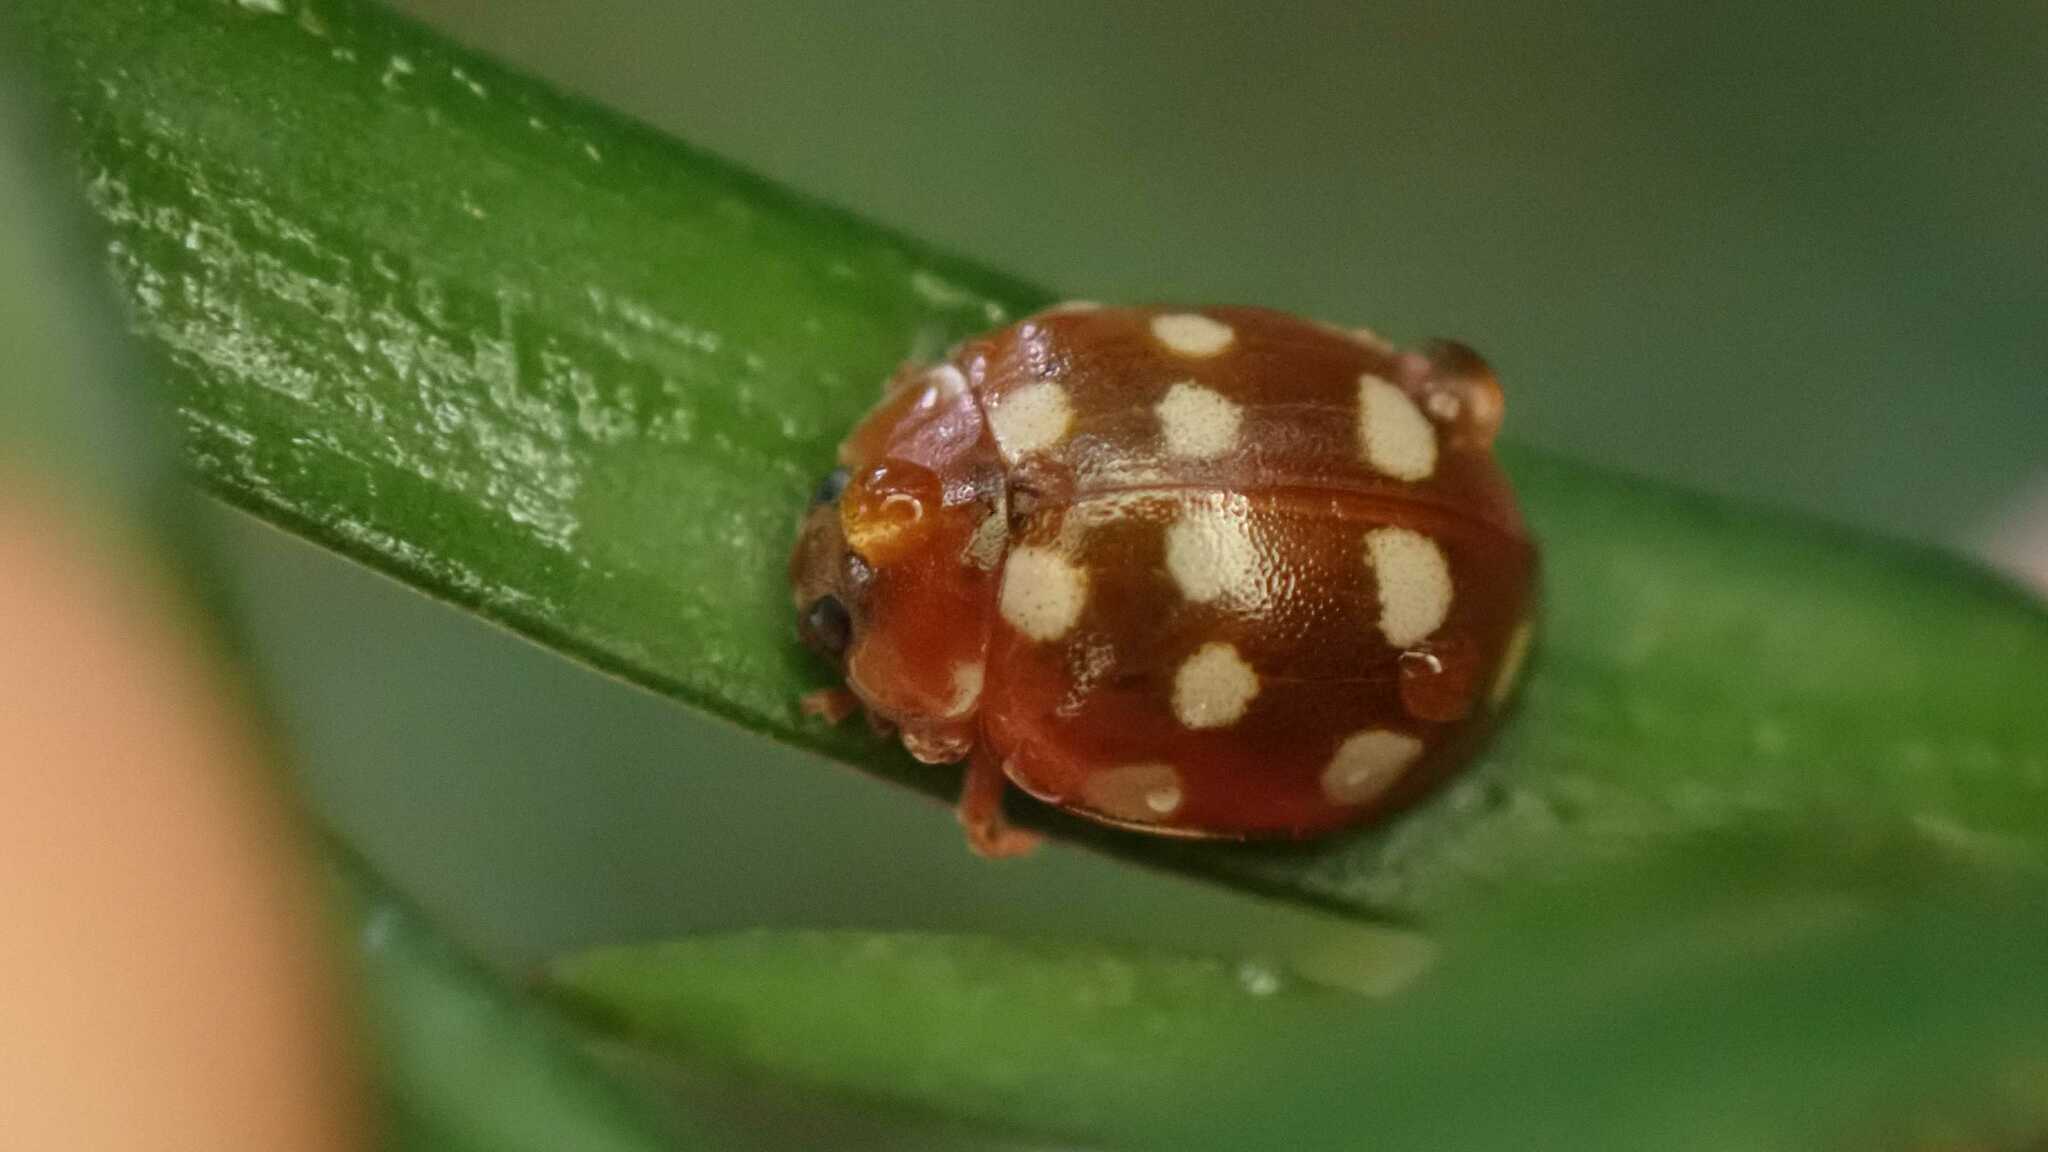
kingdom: Animalia
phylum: Arthropoda
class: Insecta
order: Coleoptera
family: Coccinellidae
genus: Calvia
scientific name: Calvia quatuordecimguttata
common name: Cream-spot ladybird
